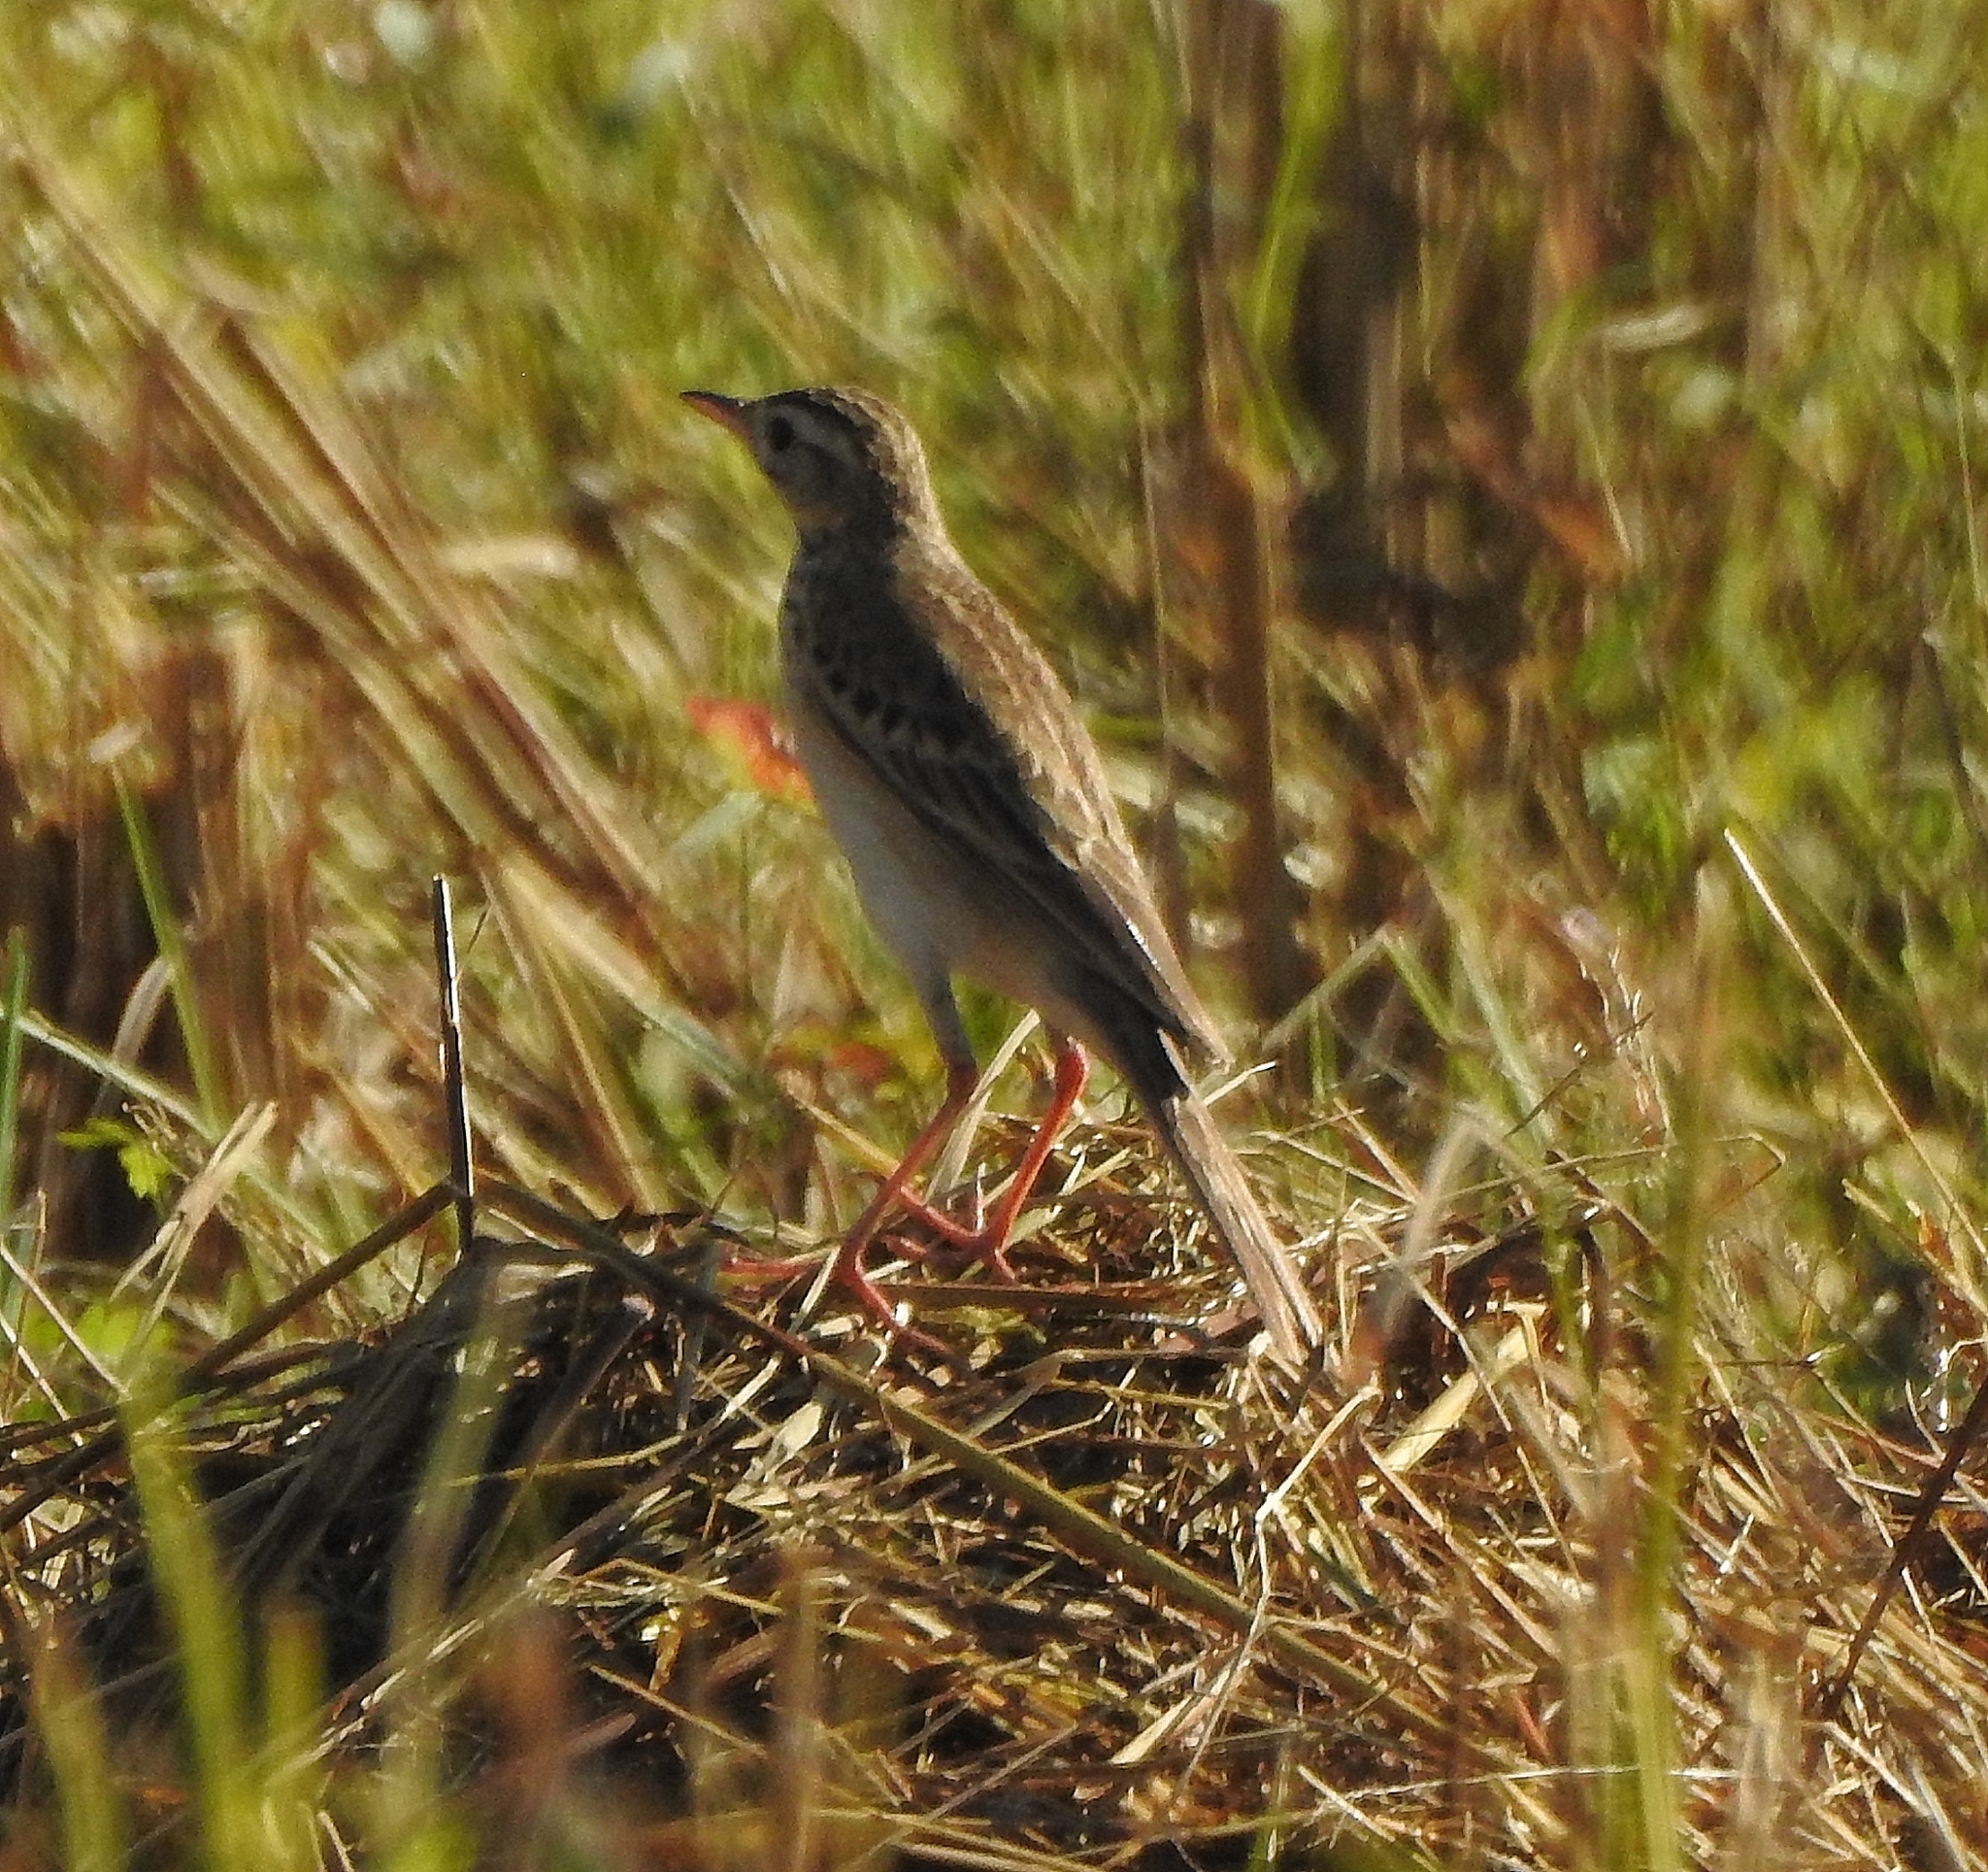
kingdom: Animalia
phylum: Chordata
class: Aves
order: Passeriformes
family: Motacillidae
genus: Anthus
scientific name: Anthus richardi
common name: Richard's pipit
